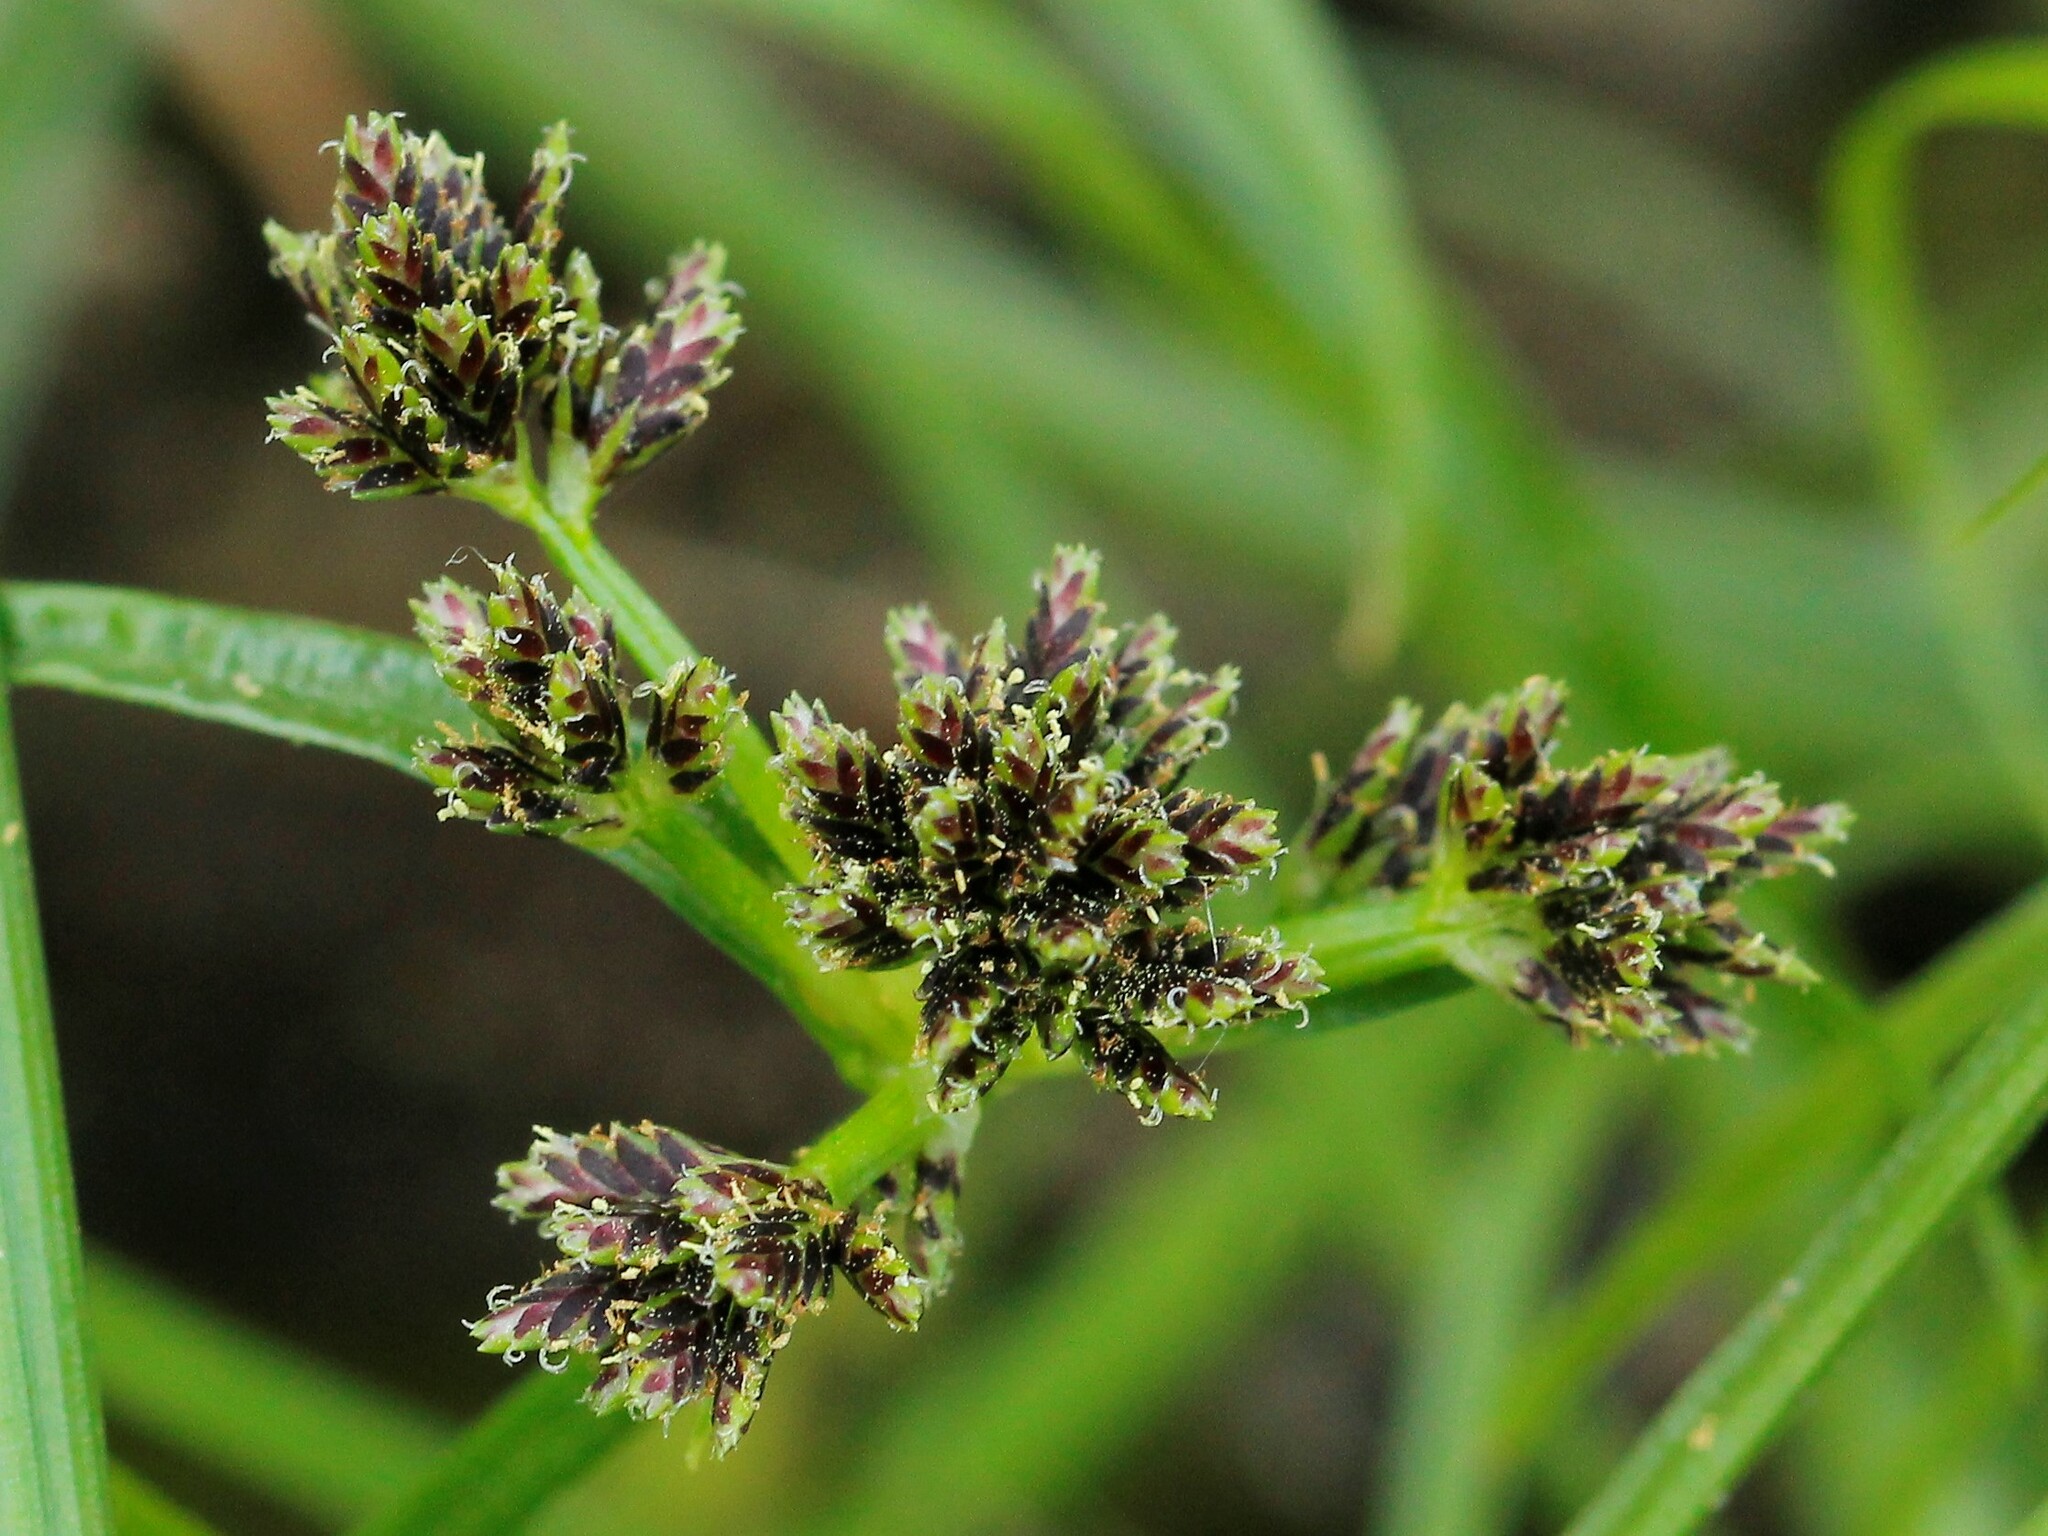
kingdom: Plantae
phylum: Tracheophyta
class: Liliopsida
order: Poales
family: Cyperaceae
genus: Cyperus
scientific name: Cyperus fuscus
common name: Brown galingale
